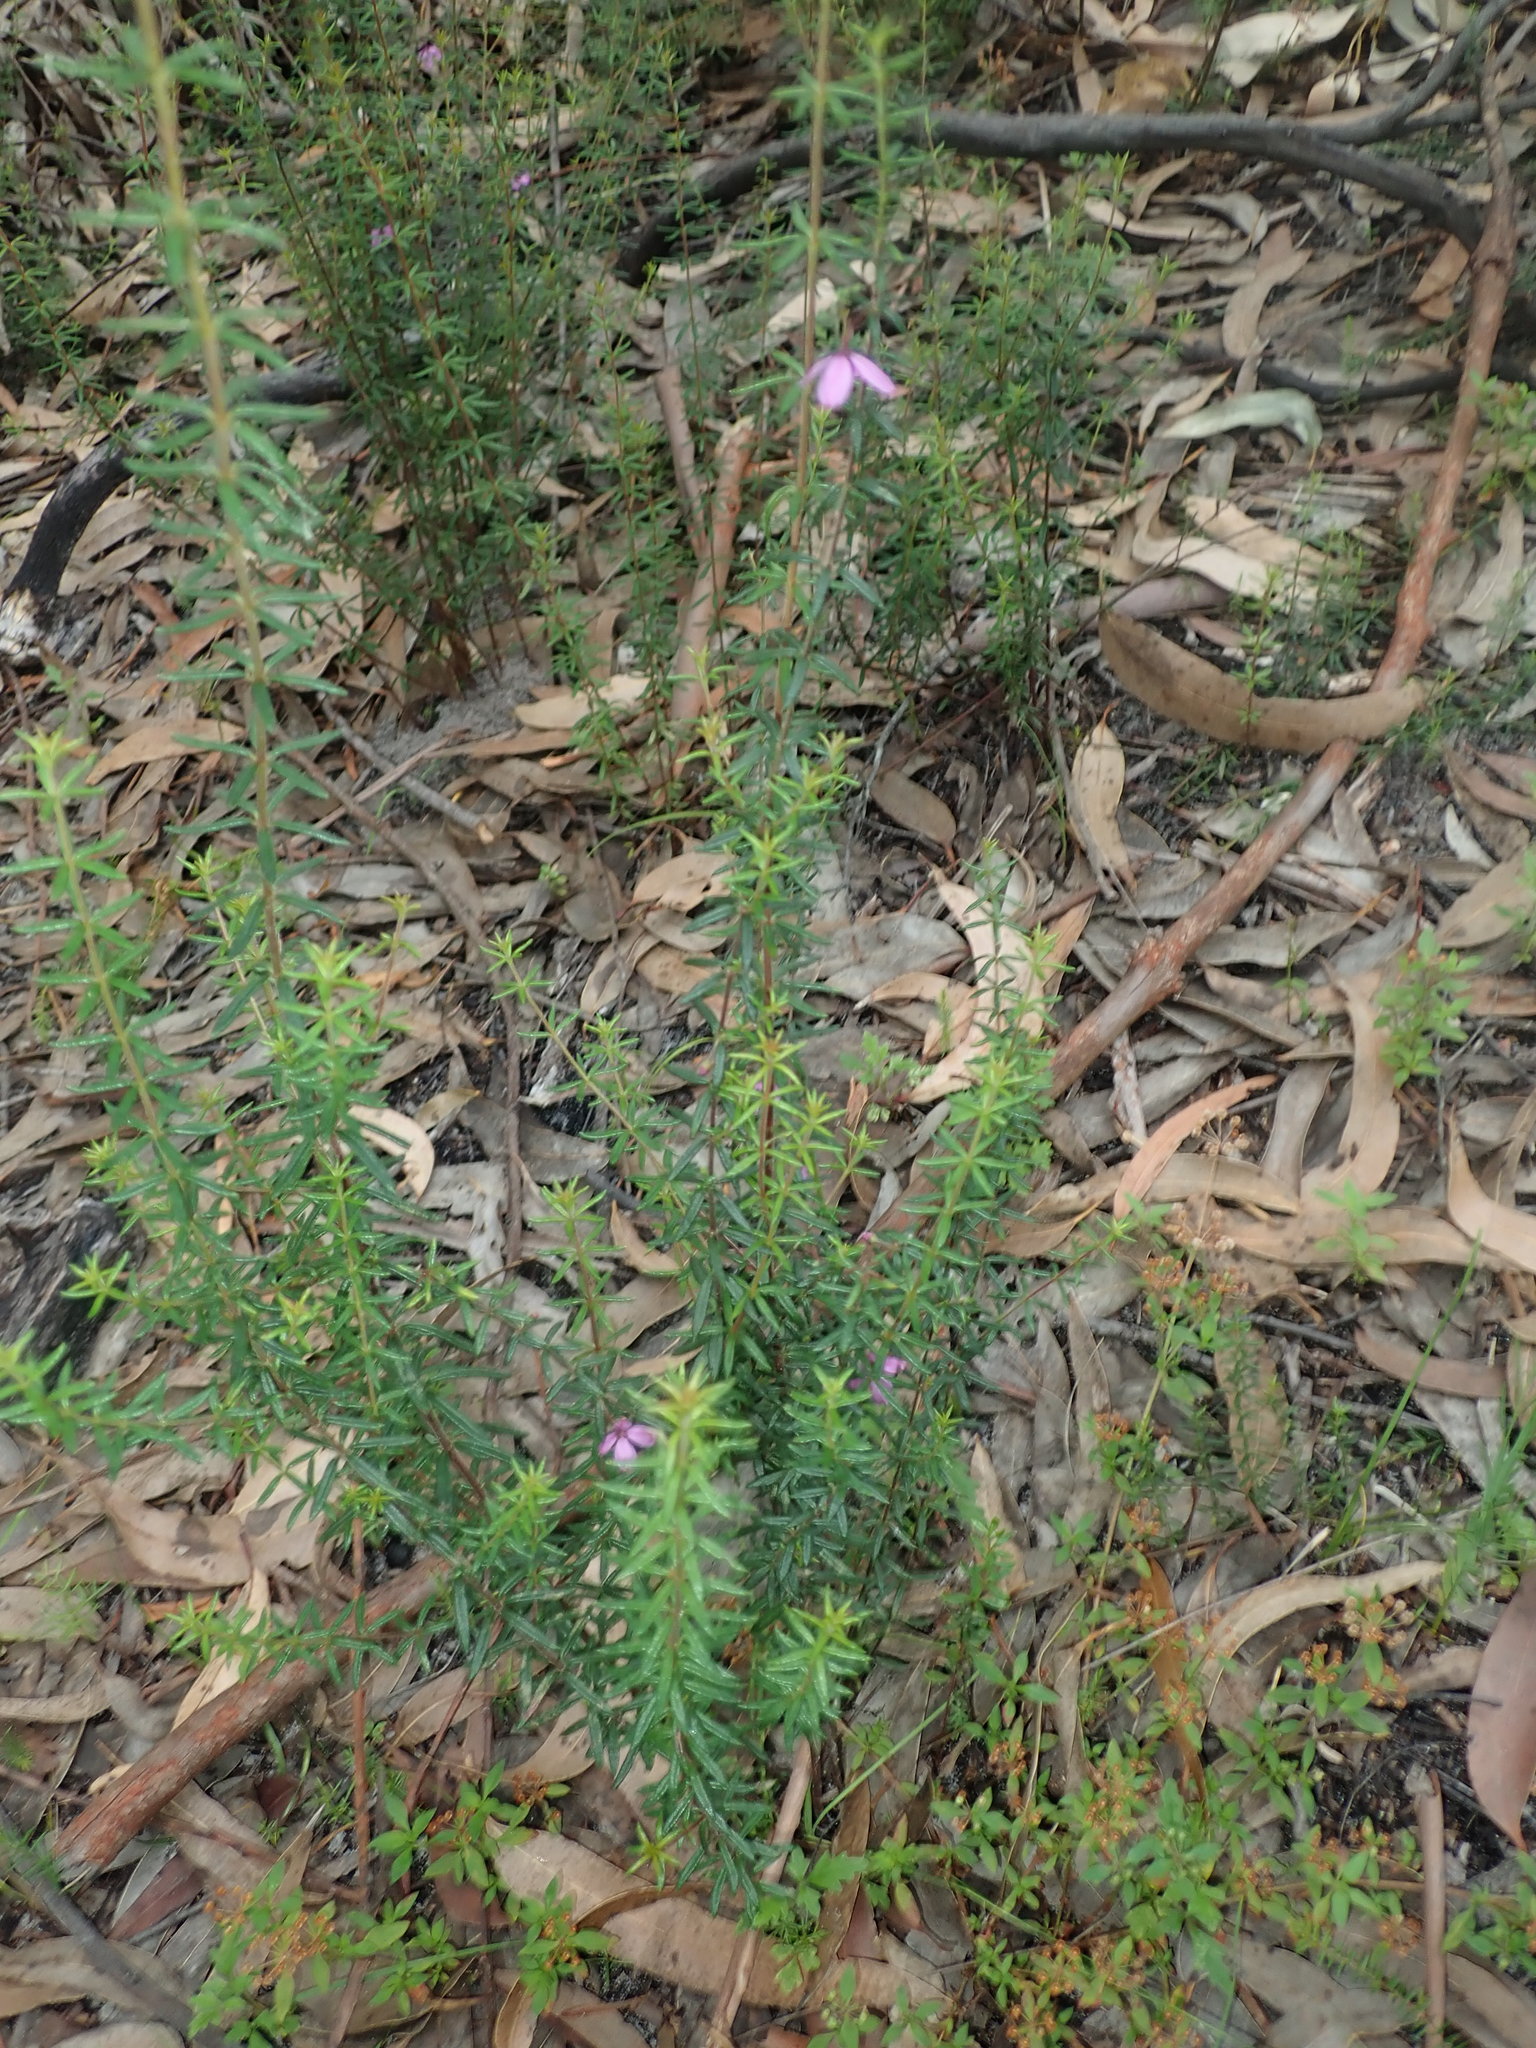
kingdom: Plantae
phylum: Tracheophyta
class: Magnoliopsida
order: Oxalidales
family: Elaeocarpaceae
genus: Tetratheca
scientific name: Tetratheca thymifolia
